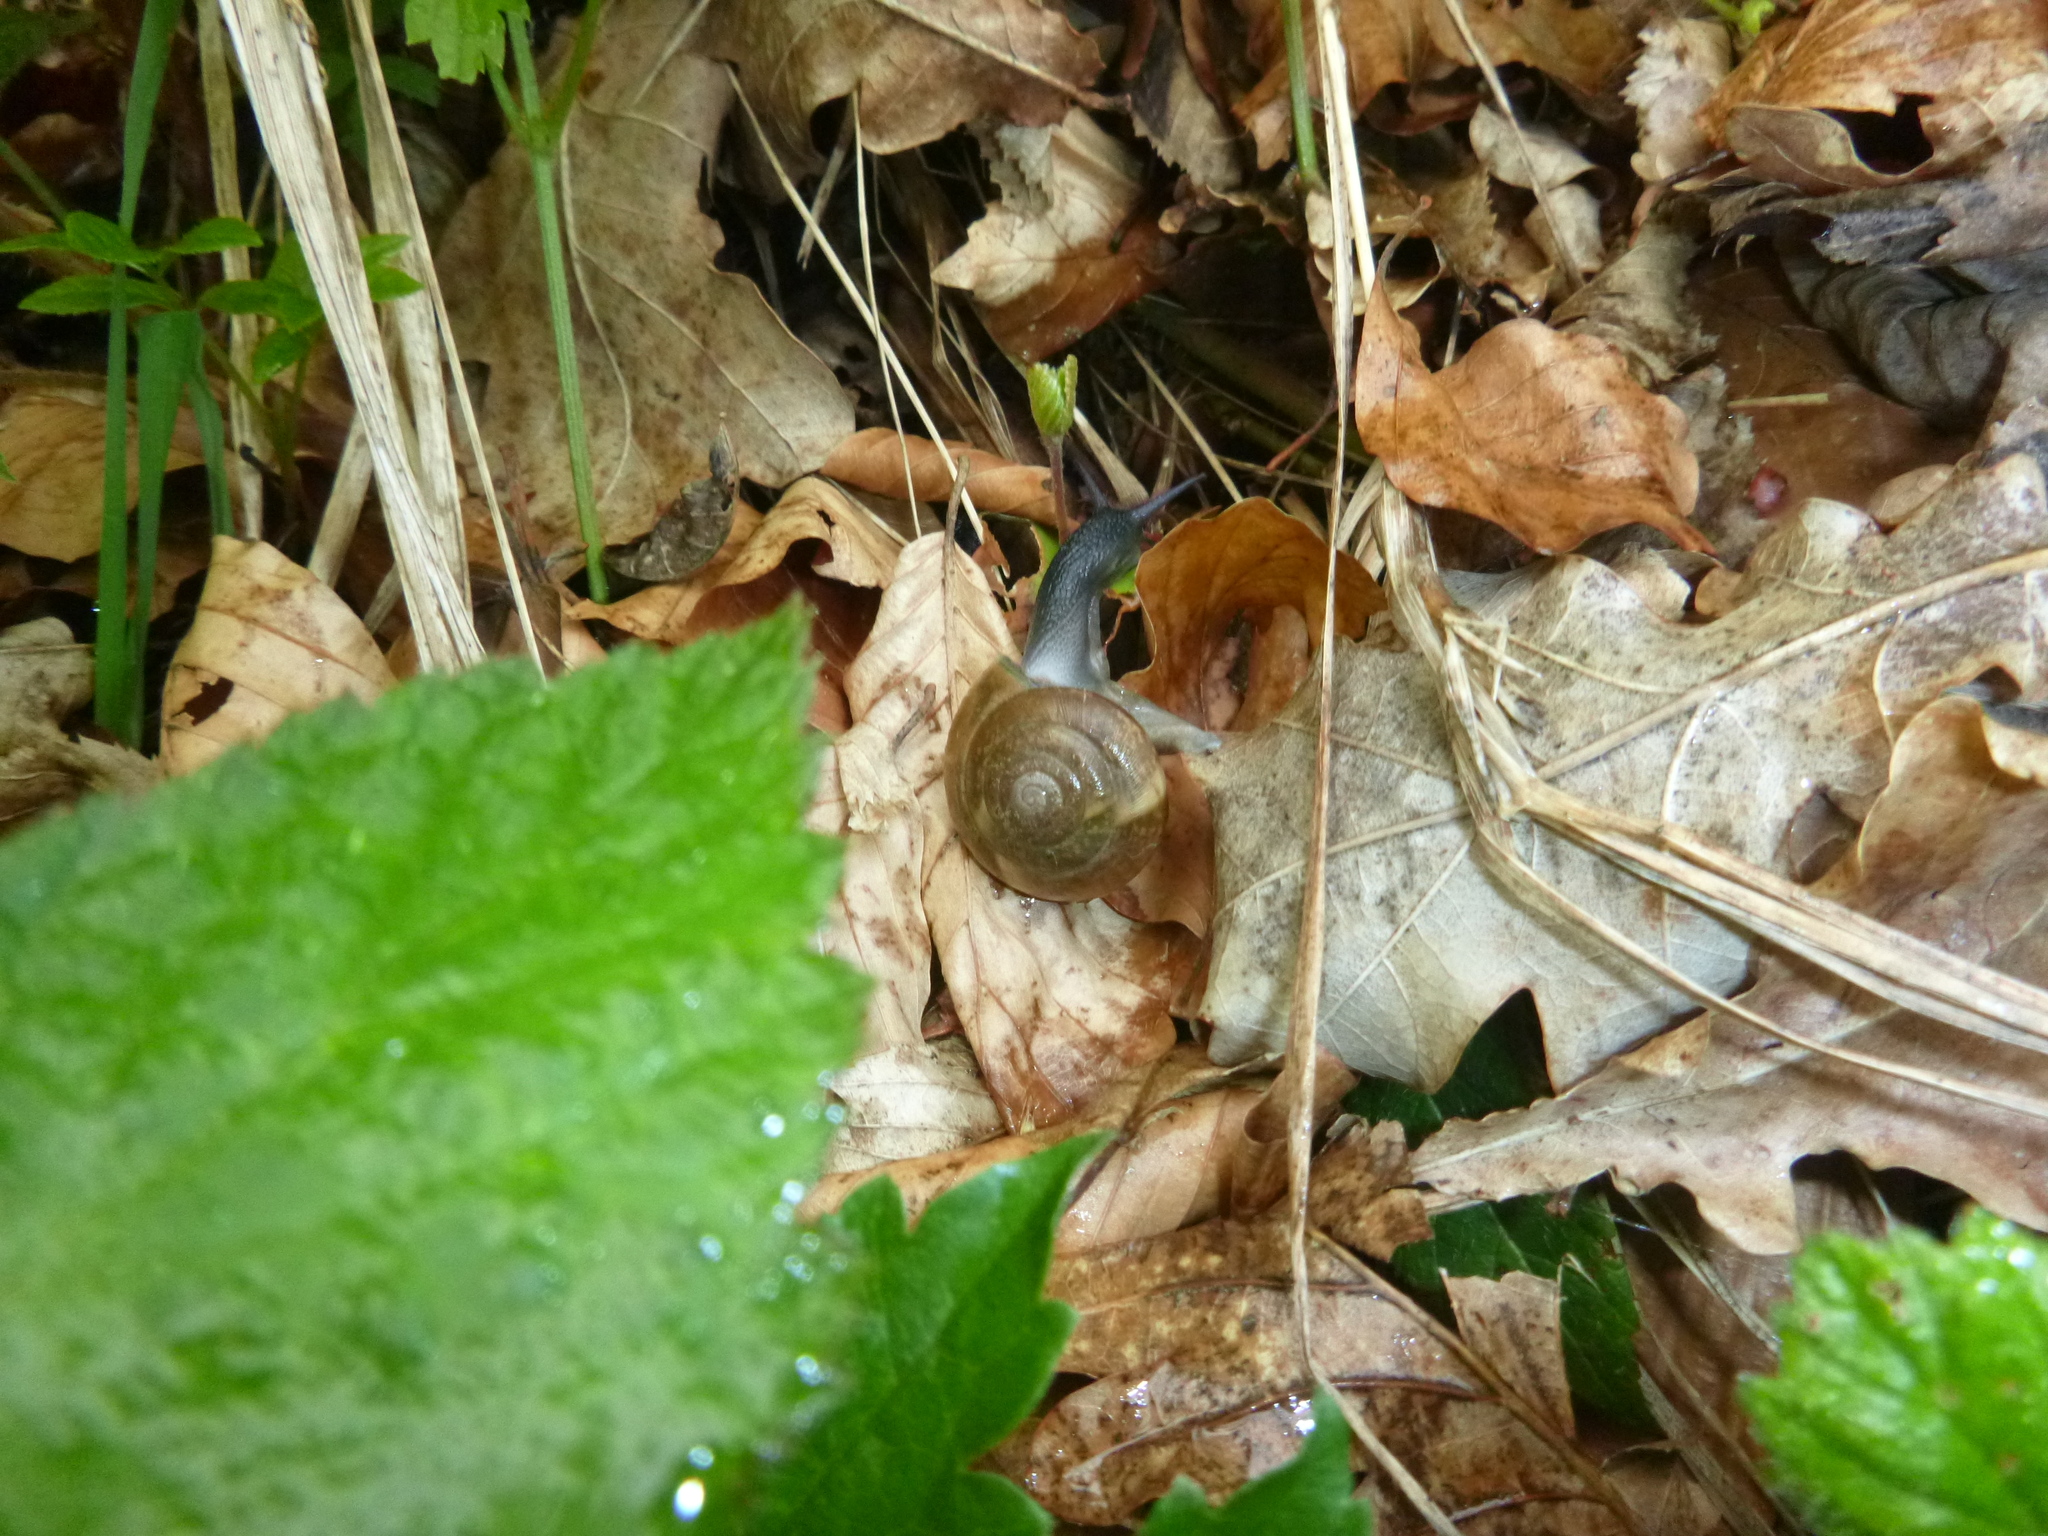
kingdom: Animalia
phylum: Mollusca
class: Gastropoda
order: Stylommatophora
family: Zonitidae
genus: Aegopis
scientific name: Aegopis verticillus
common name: Giant glass snail
